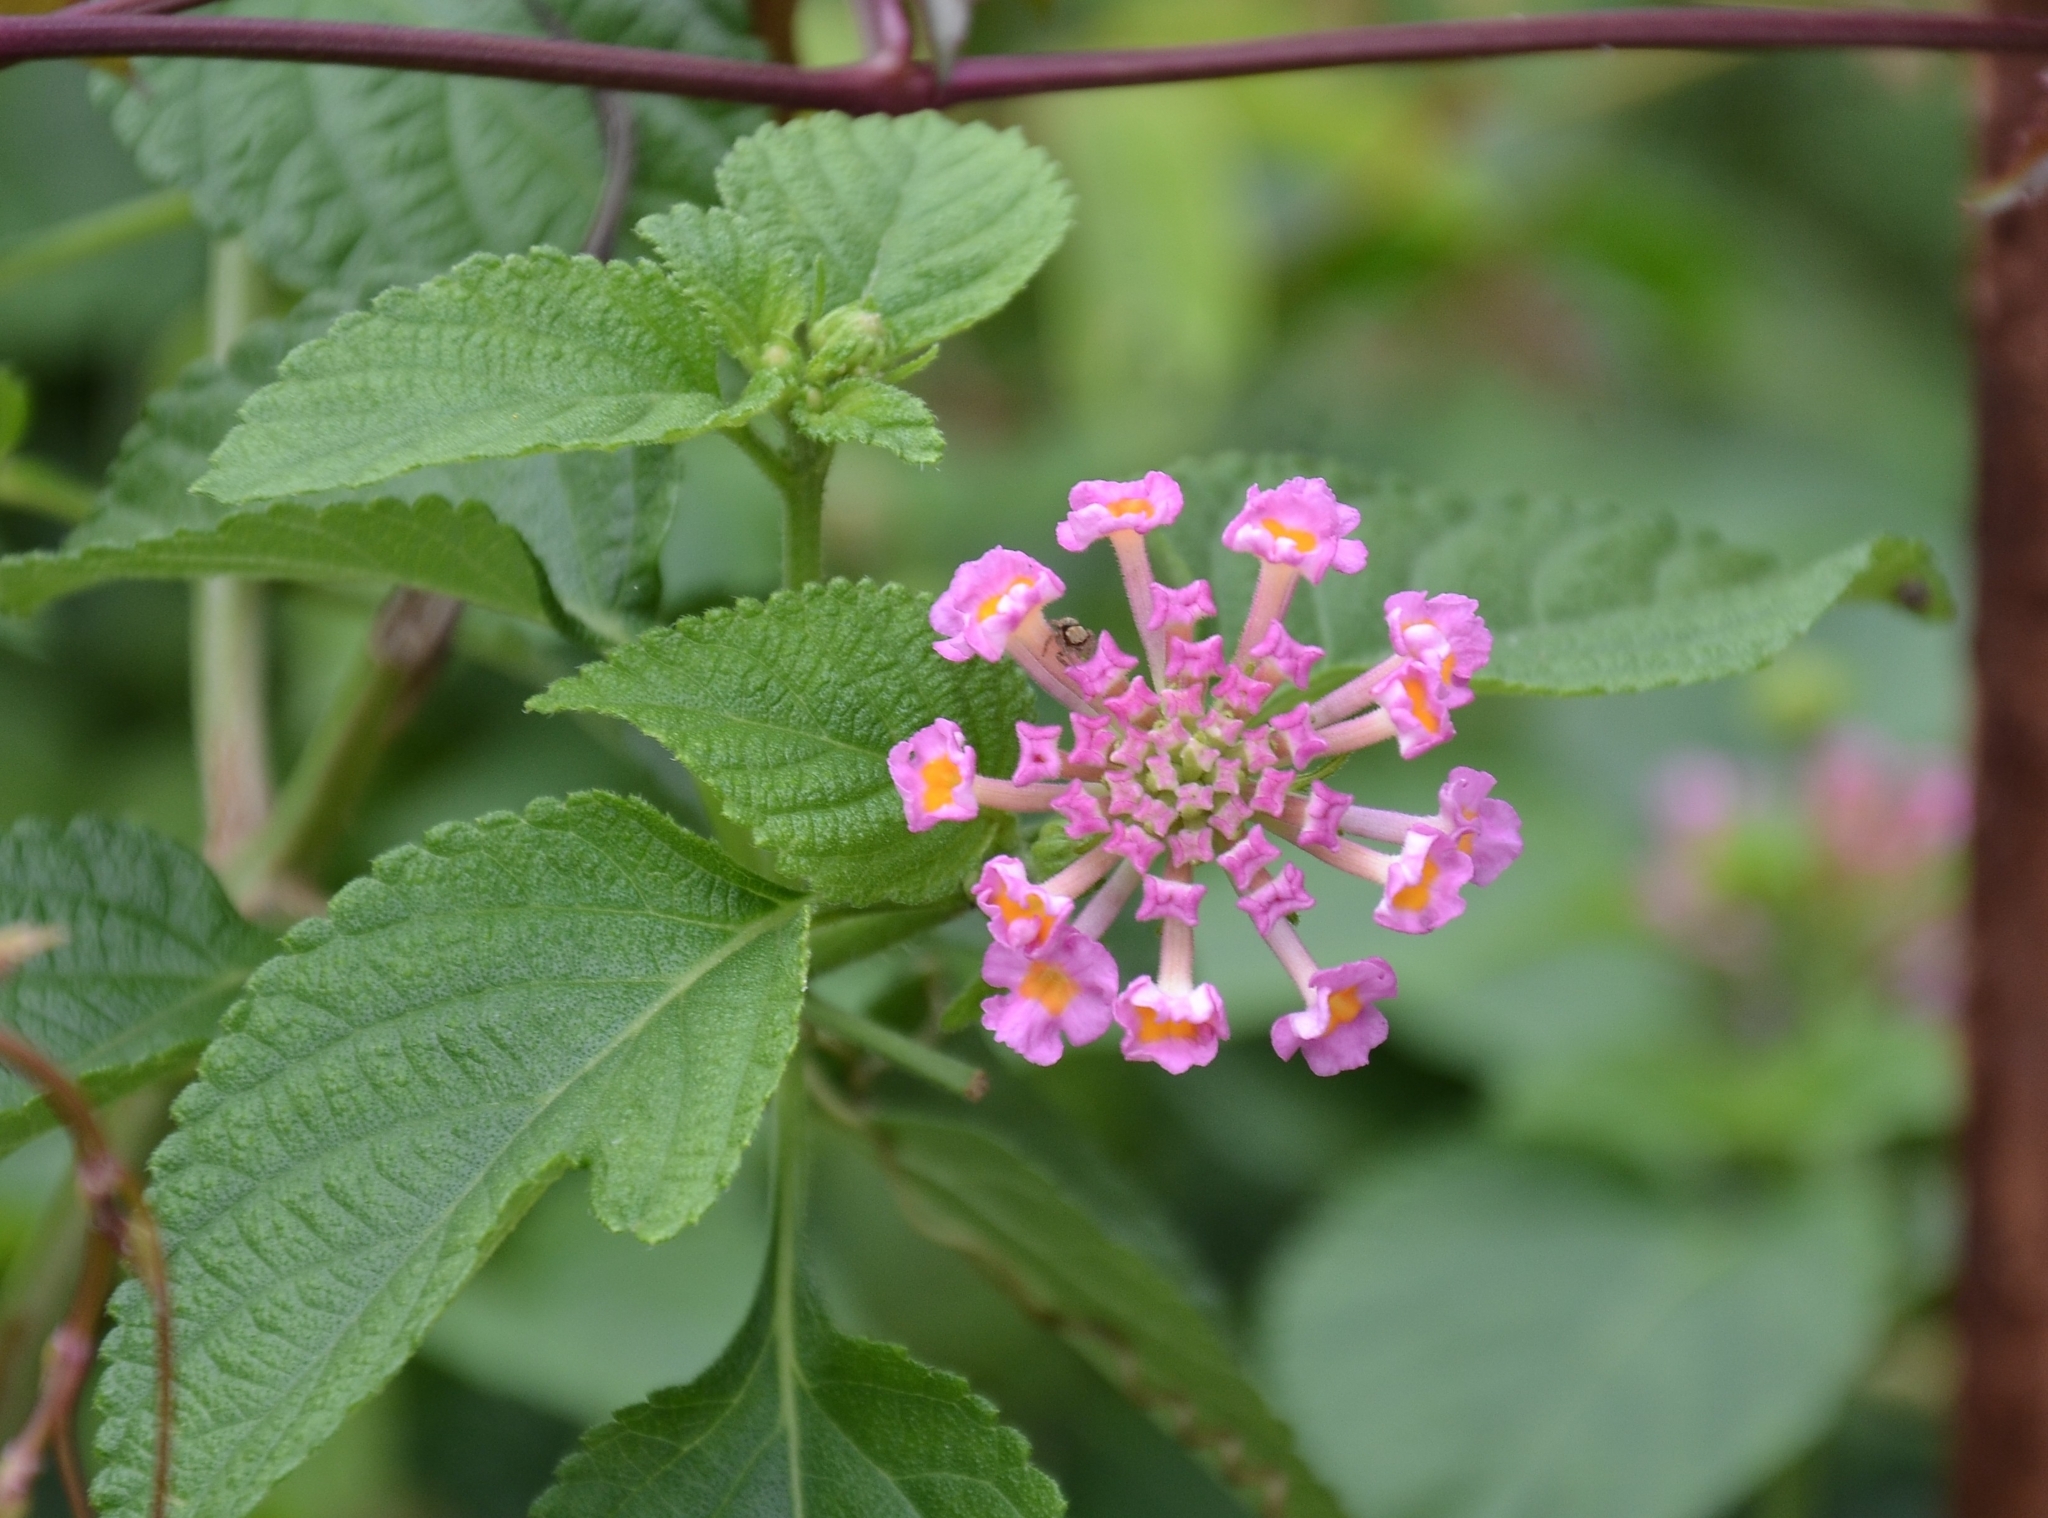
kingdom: Plantae
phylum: Tracheophyta
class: Magnoliopsida
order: Lamiales
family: Verbenaceae
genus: Lantana
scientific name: Lantana camara
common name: Lantana
